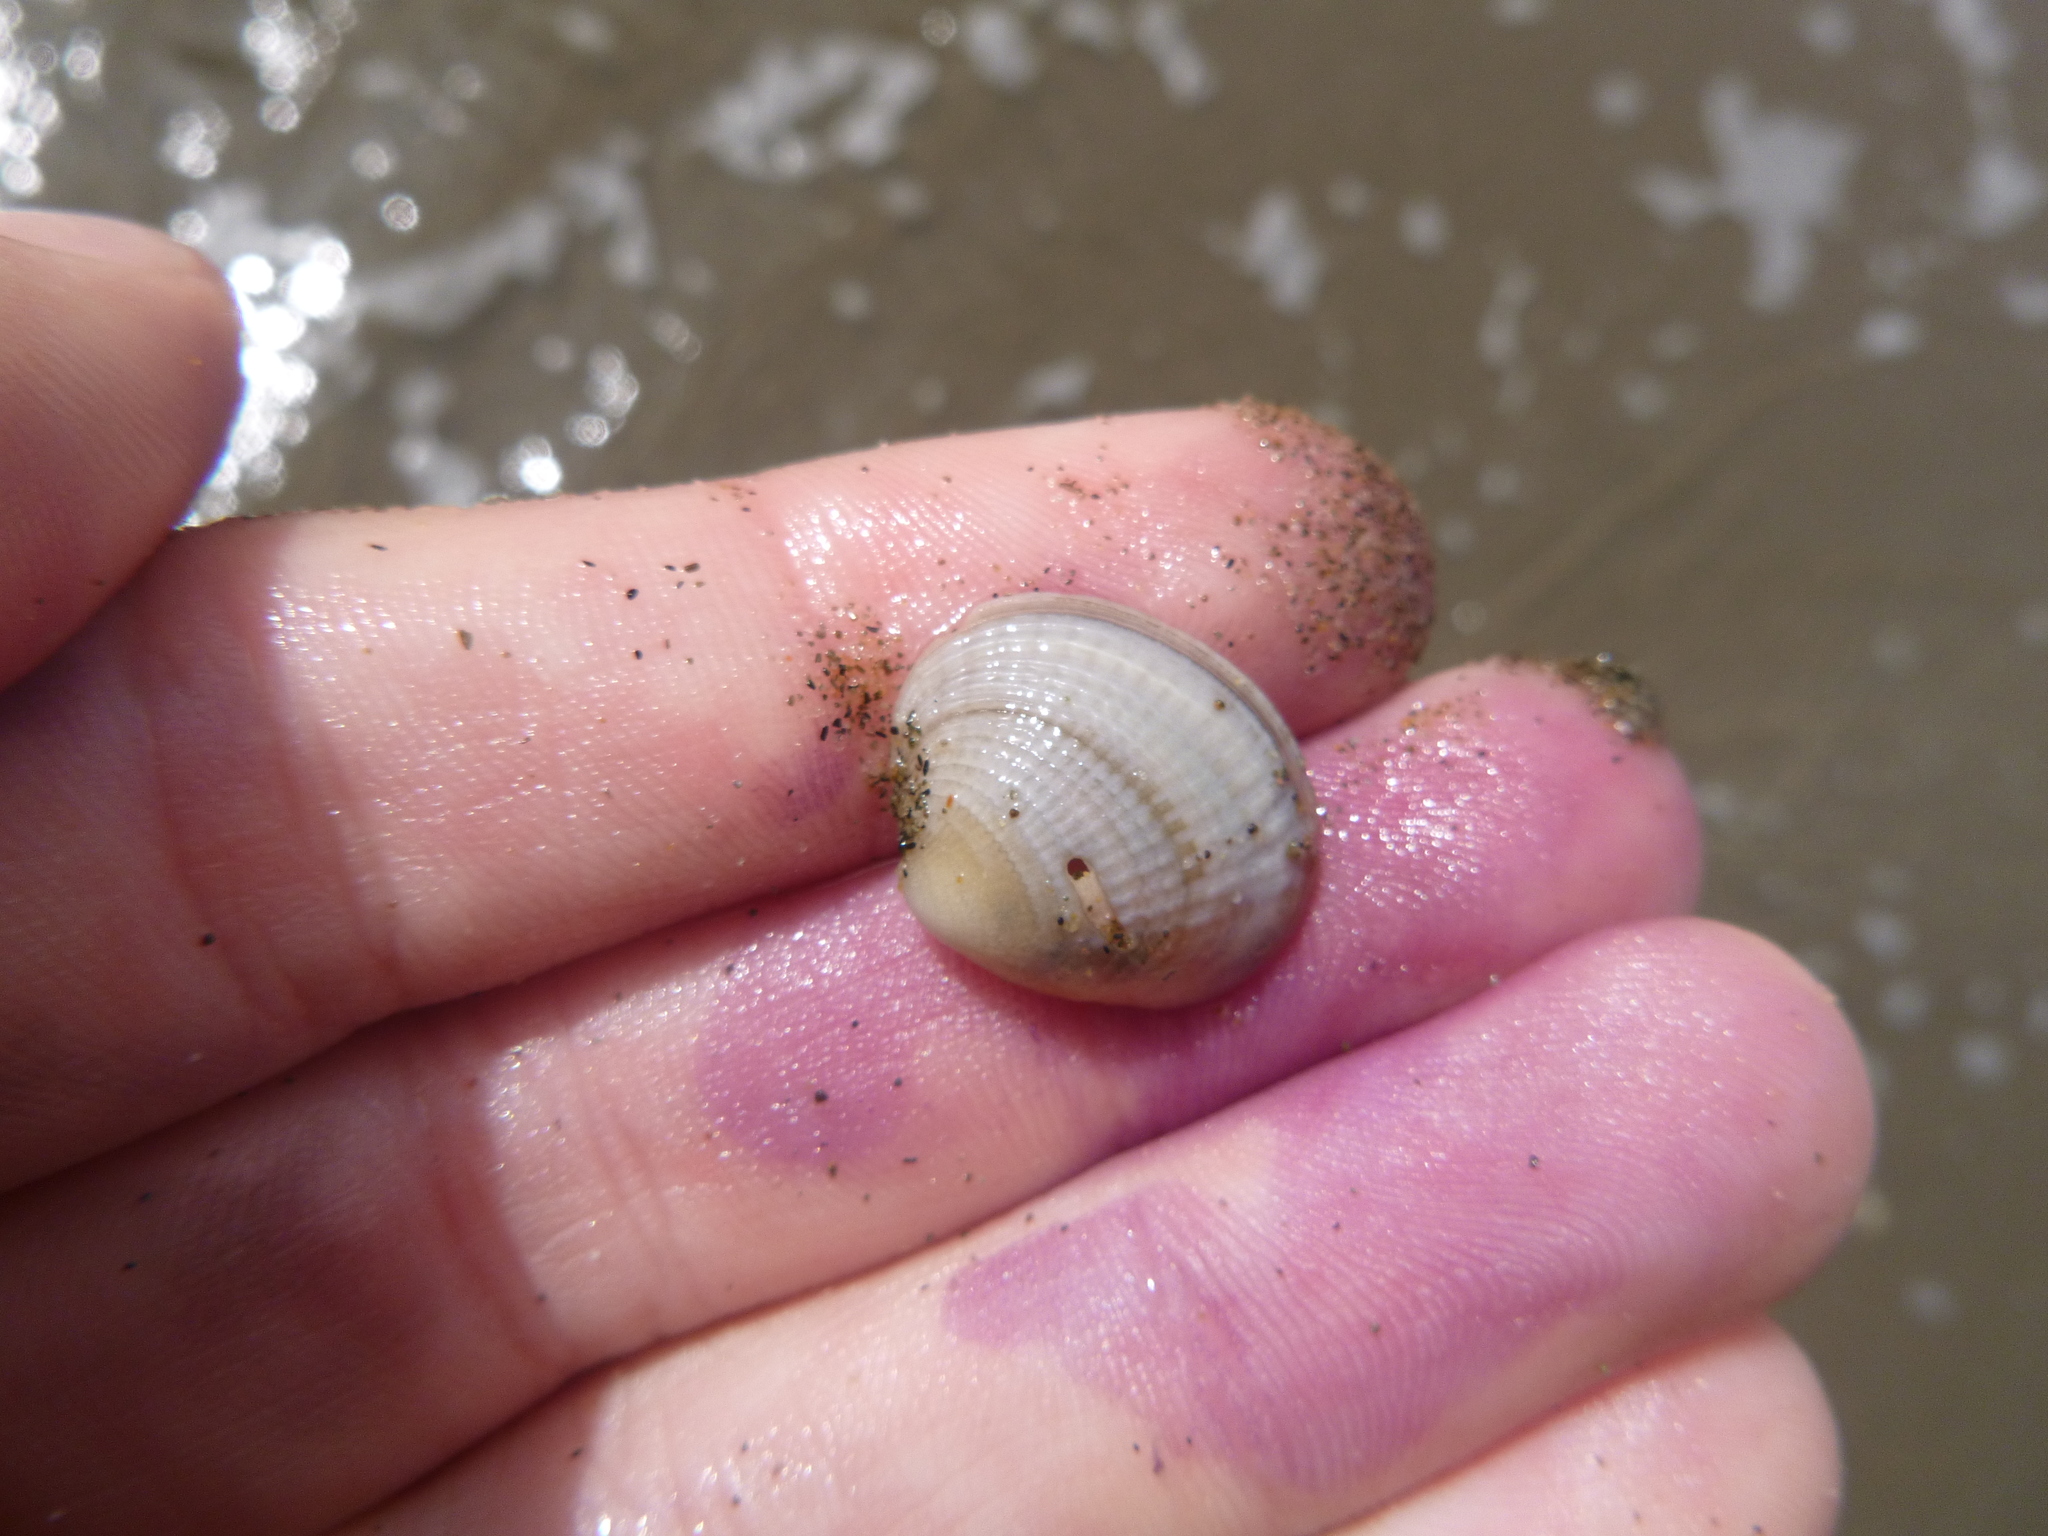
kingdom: Animalia
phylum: Mollusca
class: Bivalvia
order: Venerida
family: Veneridae
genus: Austrovenus
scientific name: Austrovenus stutchburyi
